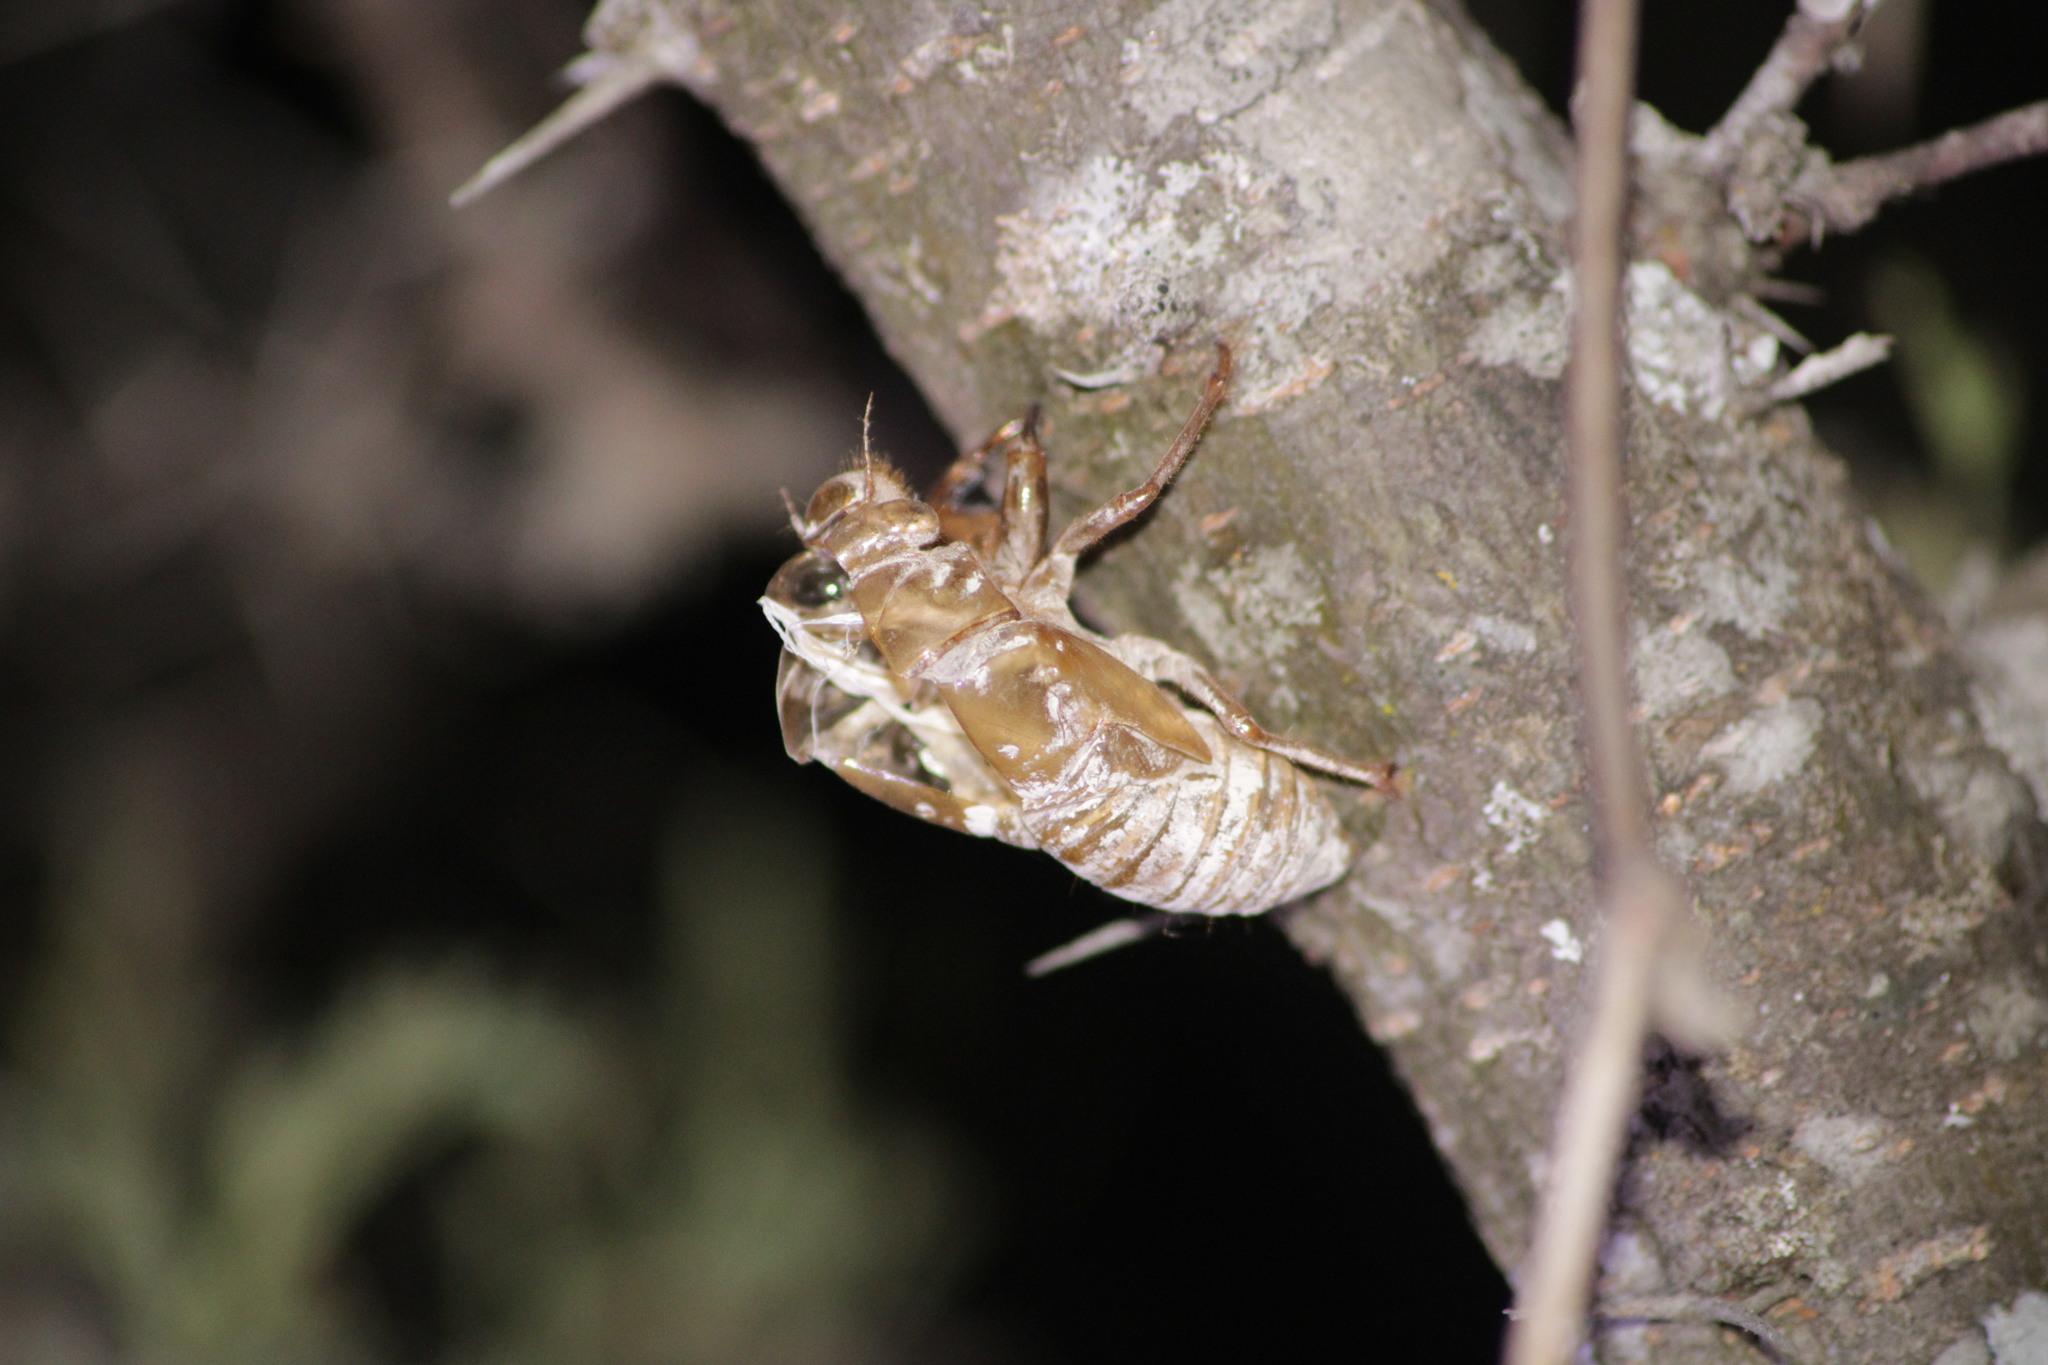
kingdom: Animalia
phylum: Arthropoda
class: Insecta
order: Hemiptera
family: Cicadidae
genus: Quesada
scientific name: Quesada gigas
